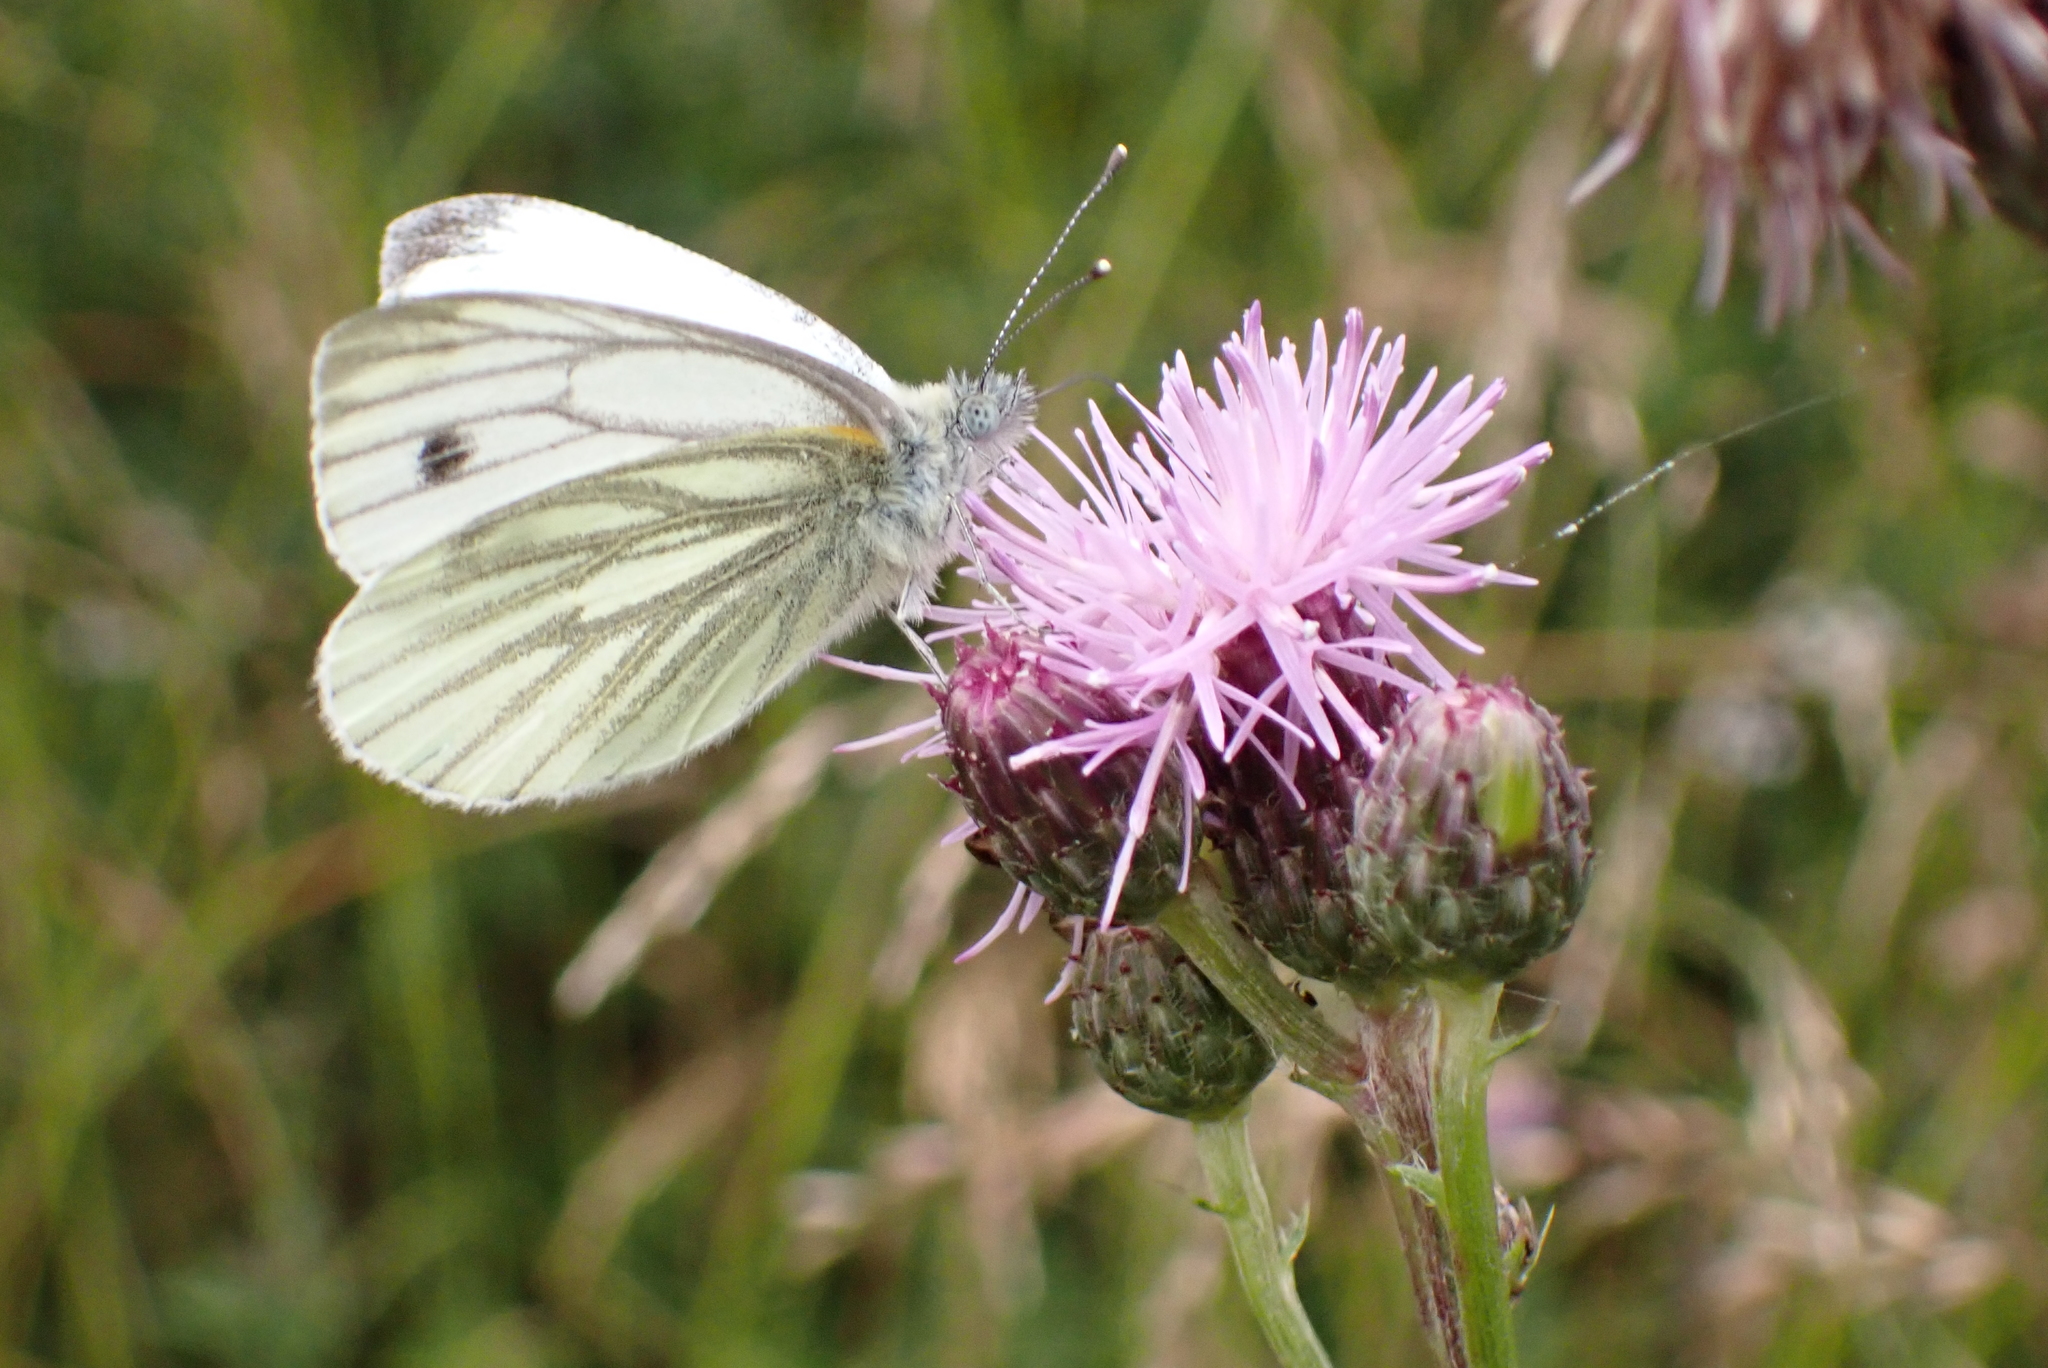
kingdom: Animalia
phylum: Arthropoda
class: Insecta
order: Lepidoptera
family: Pieridae
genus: Pieris
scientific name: Pieris napi
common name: Green-veined white
